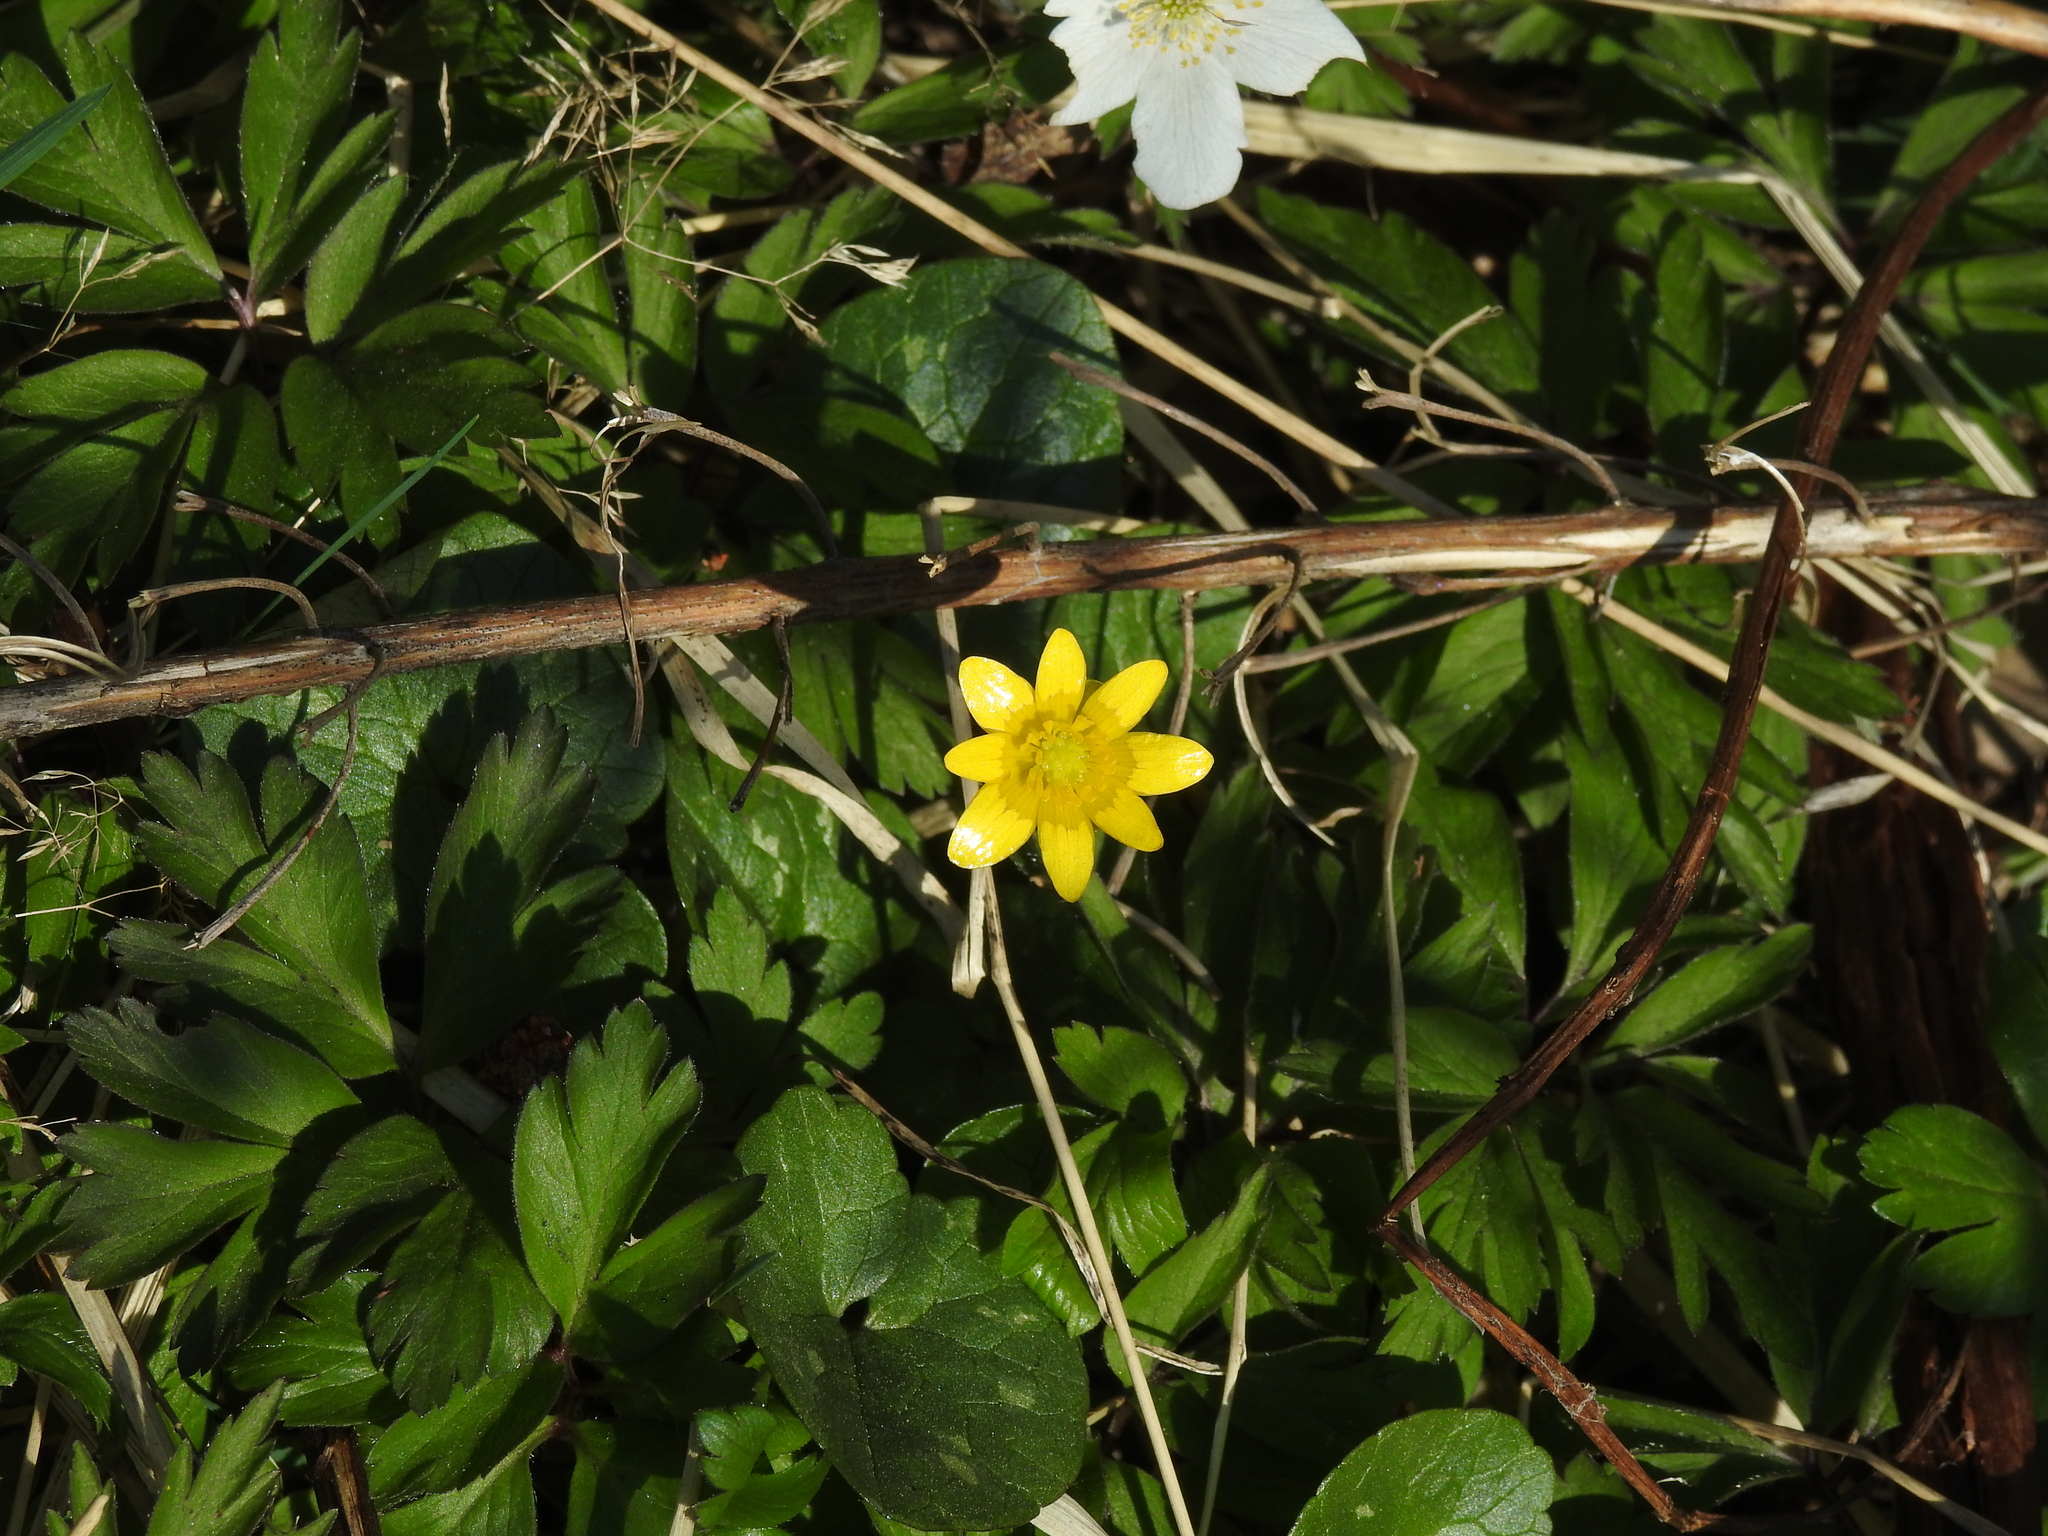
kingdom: Plantae
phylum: Tracheophyta
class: Magnoliopsida
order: Ranunculales
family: Ranunculaceae
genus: Ficaria
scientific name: Ficaria verna
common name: Lesser celandine
